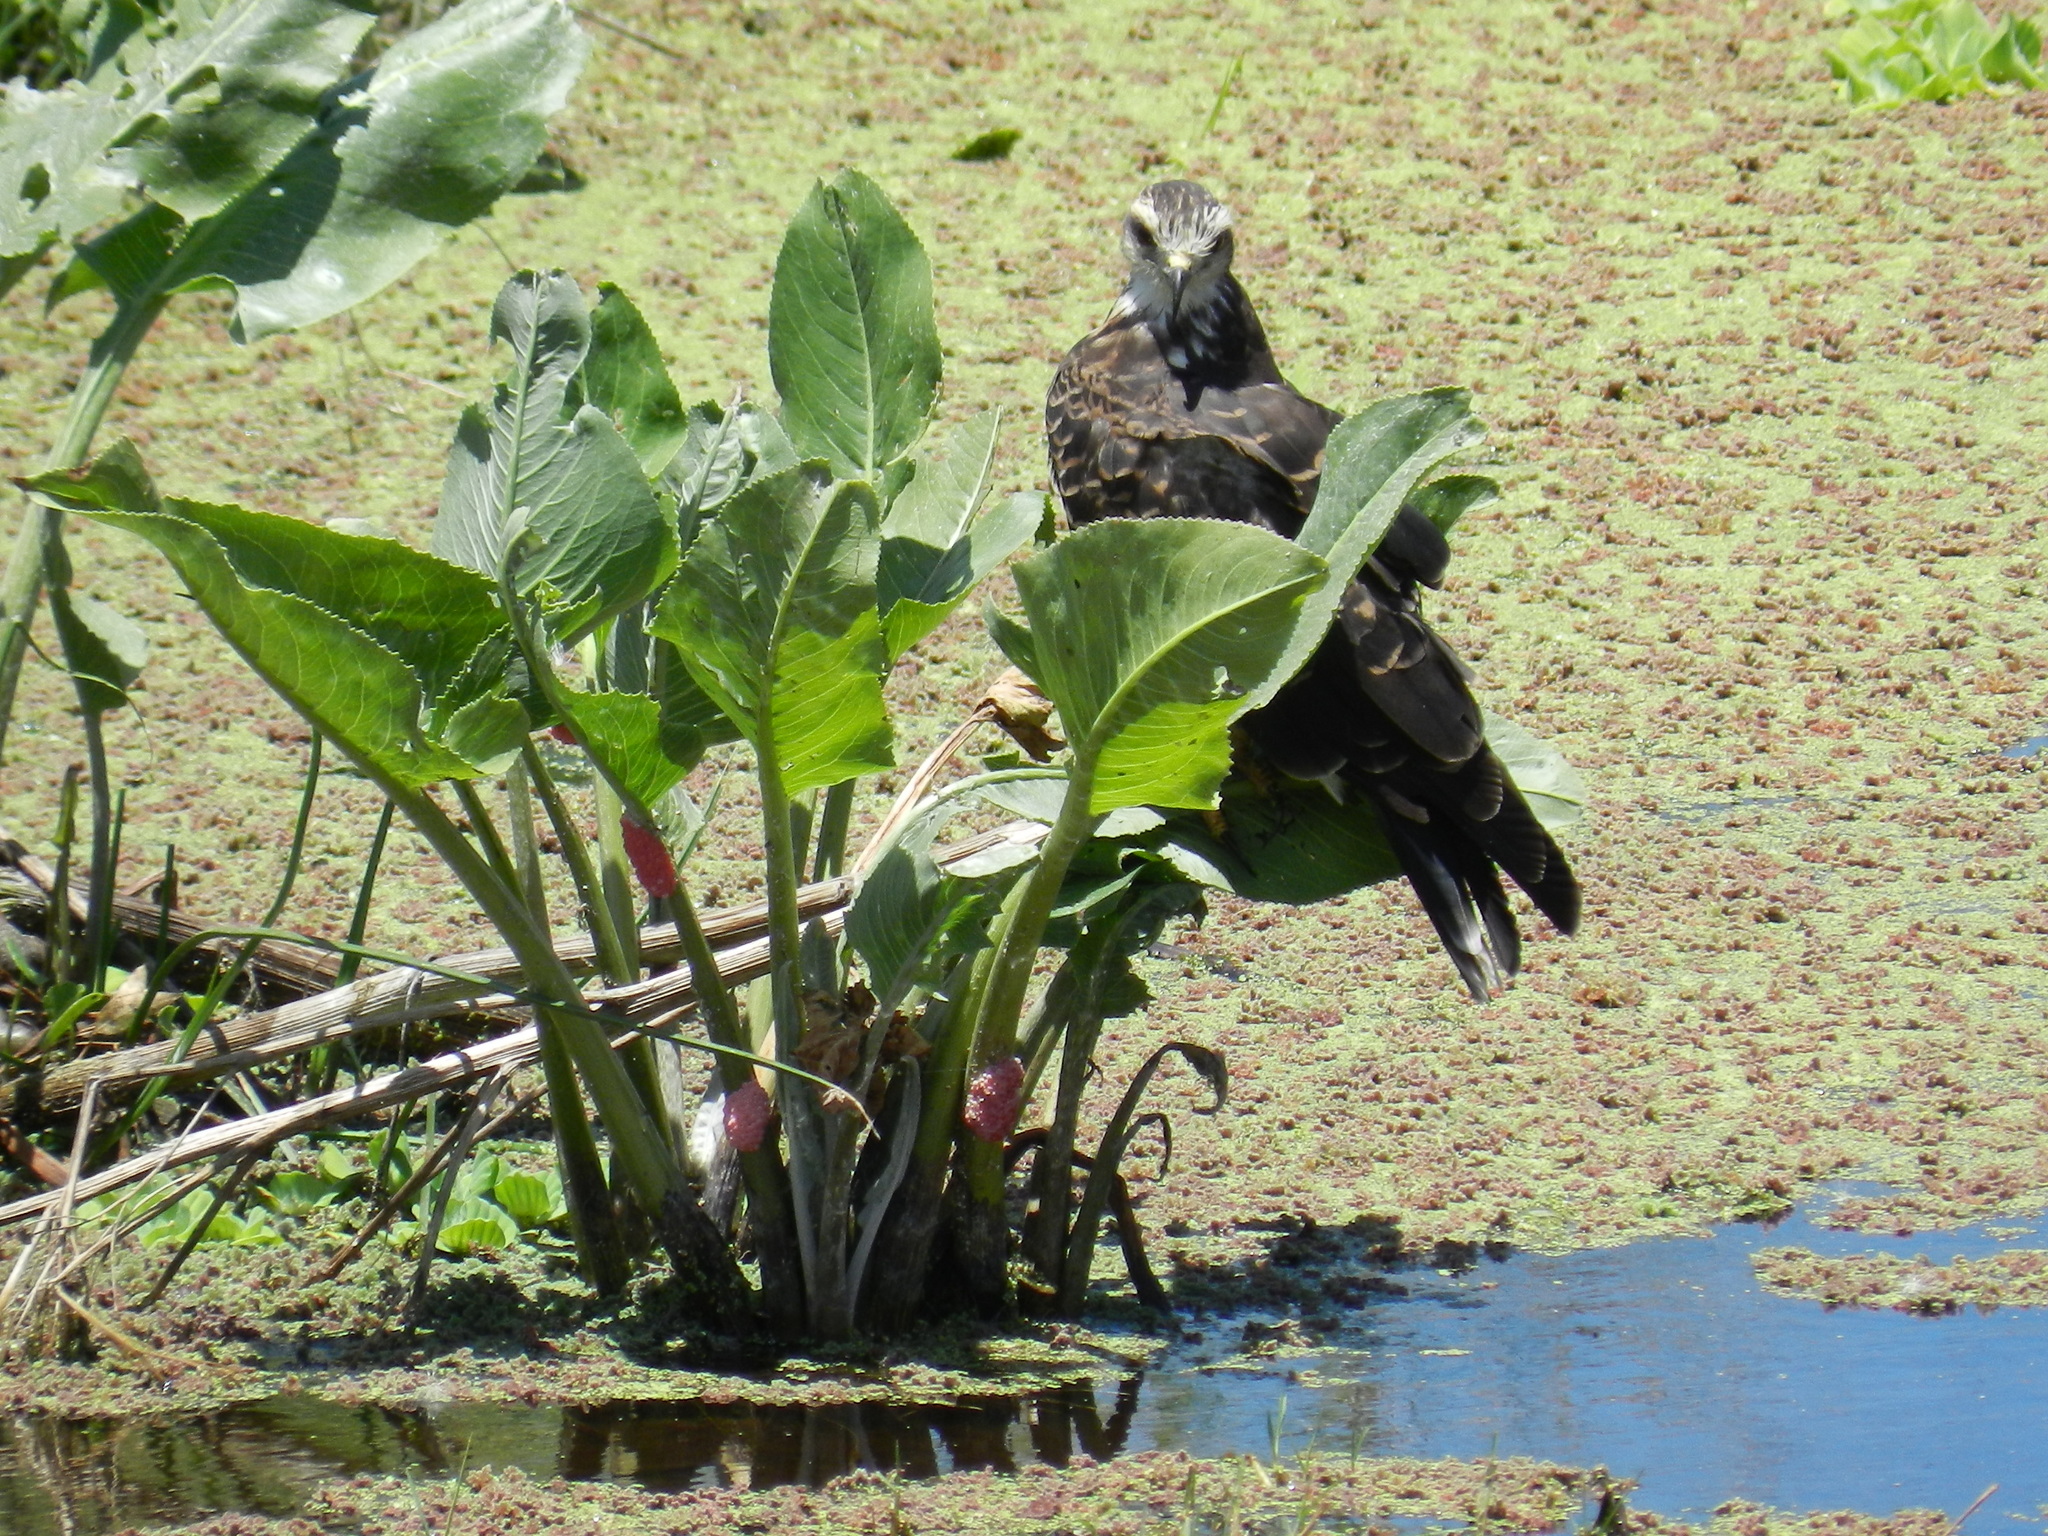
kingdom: Animalia
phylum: Chordata
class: Aves
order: Accipitriformes
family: Accipitridae
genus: Rostrhamus
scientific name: Rostrhamus sociabilis
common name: Snail kite
